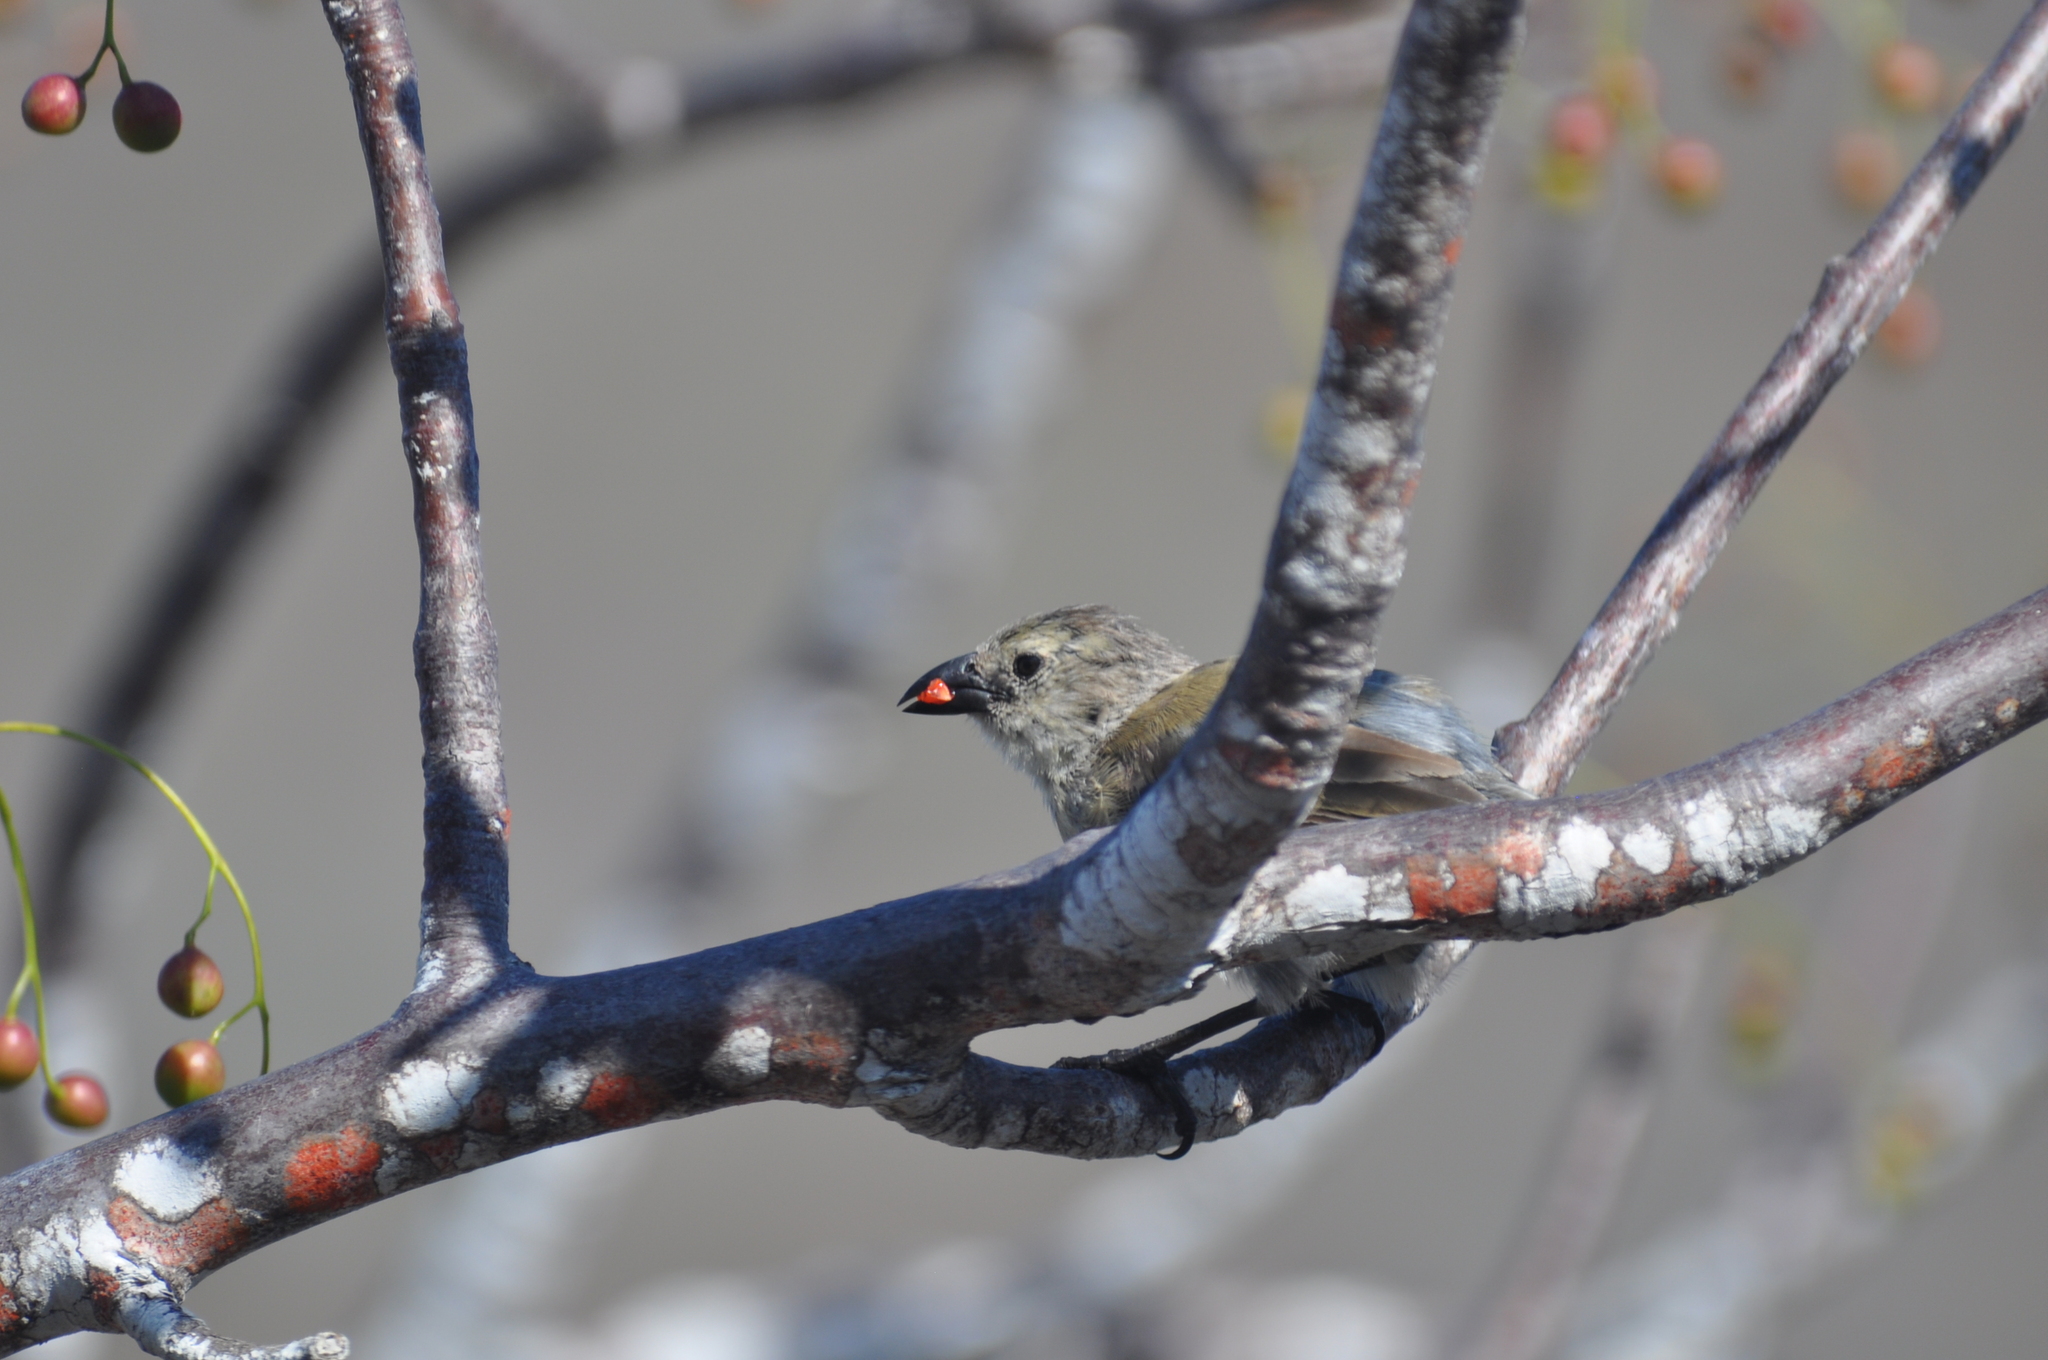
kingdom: Animalia
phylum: Chordata
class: Aves
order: Passeriformes
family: Thraupidae
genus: Camarhynchus
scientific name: Camarhynchus pallidus
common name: Woodpecker finch
